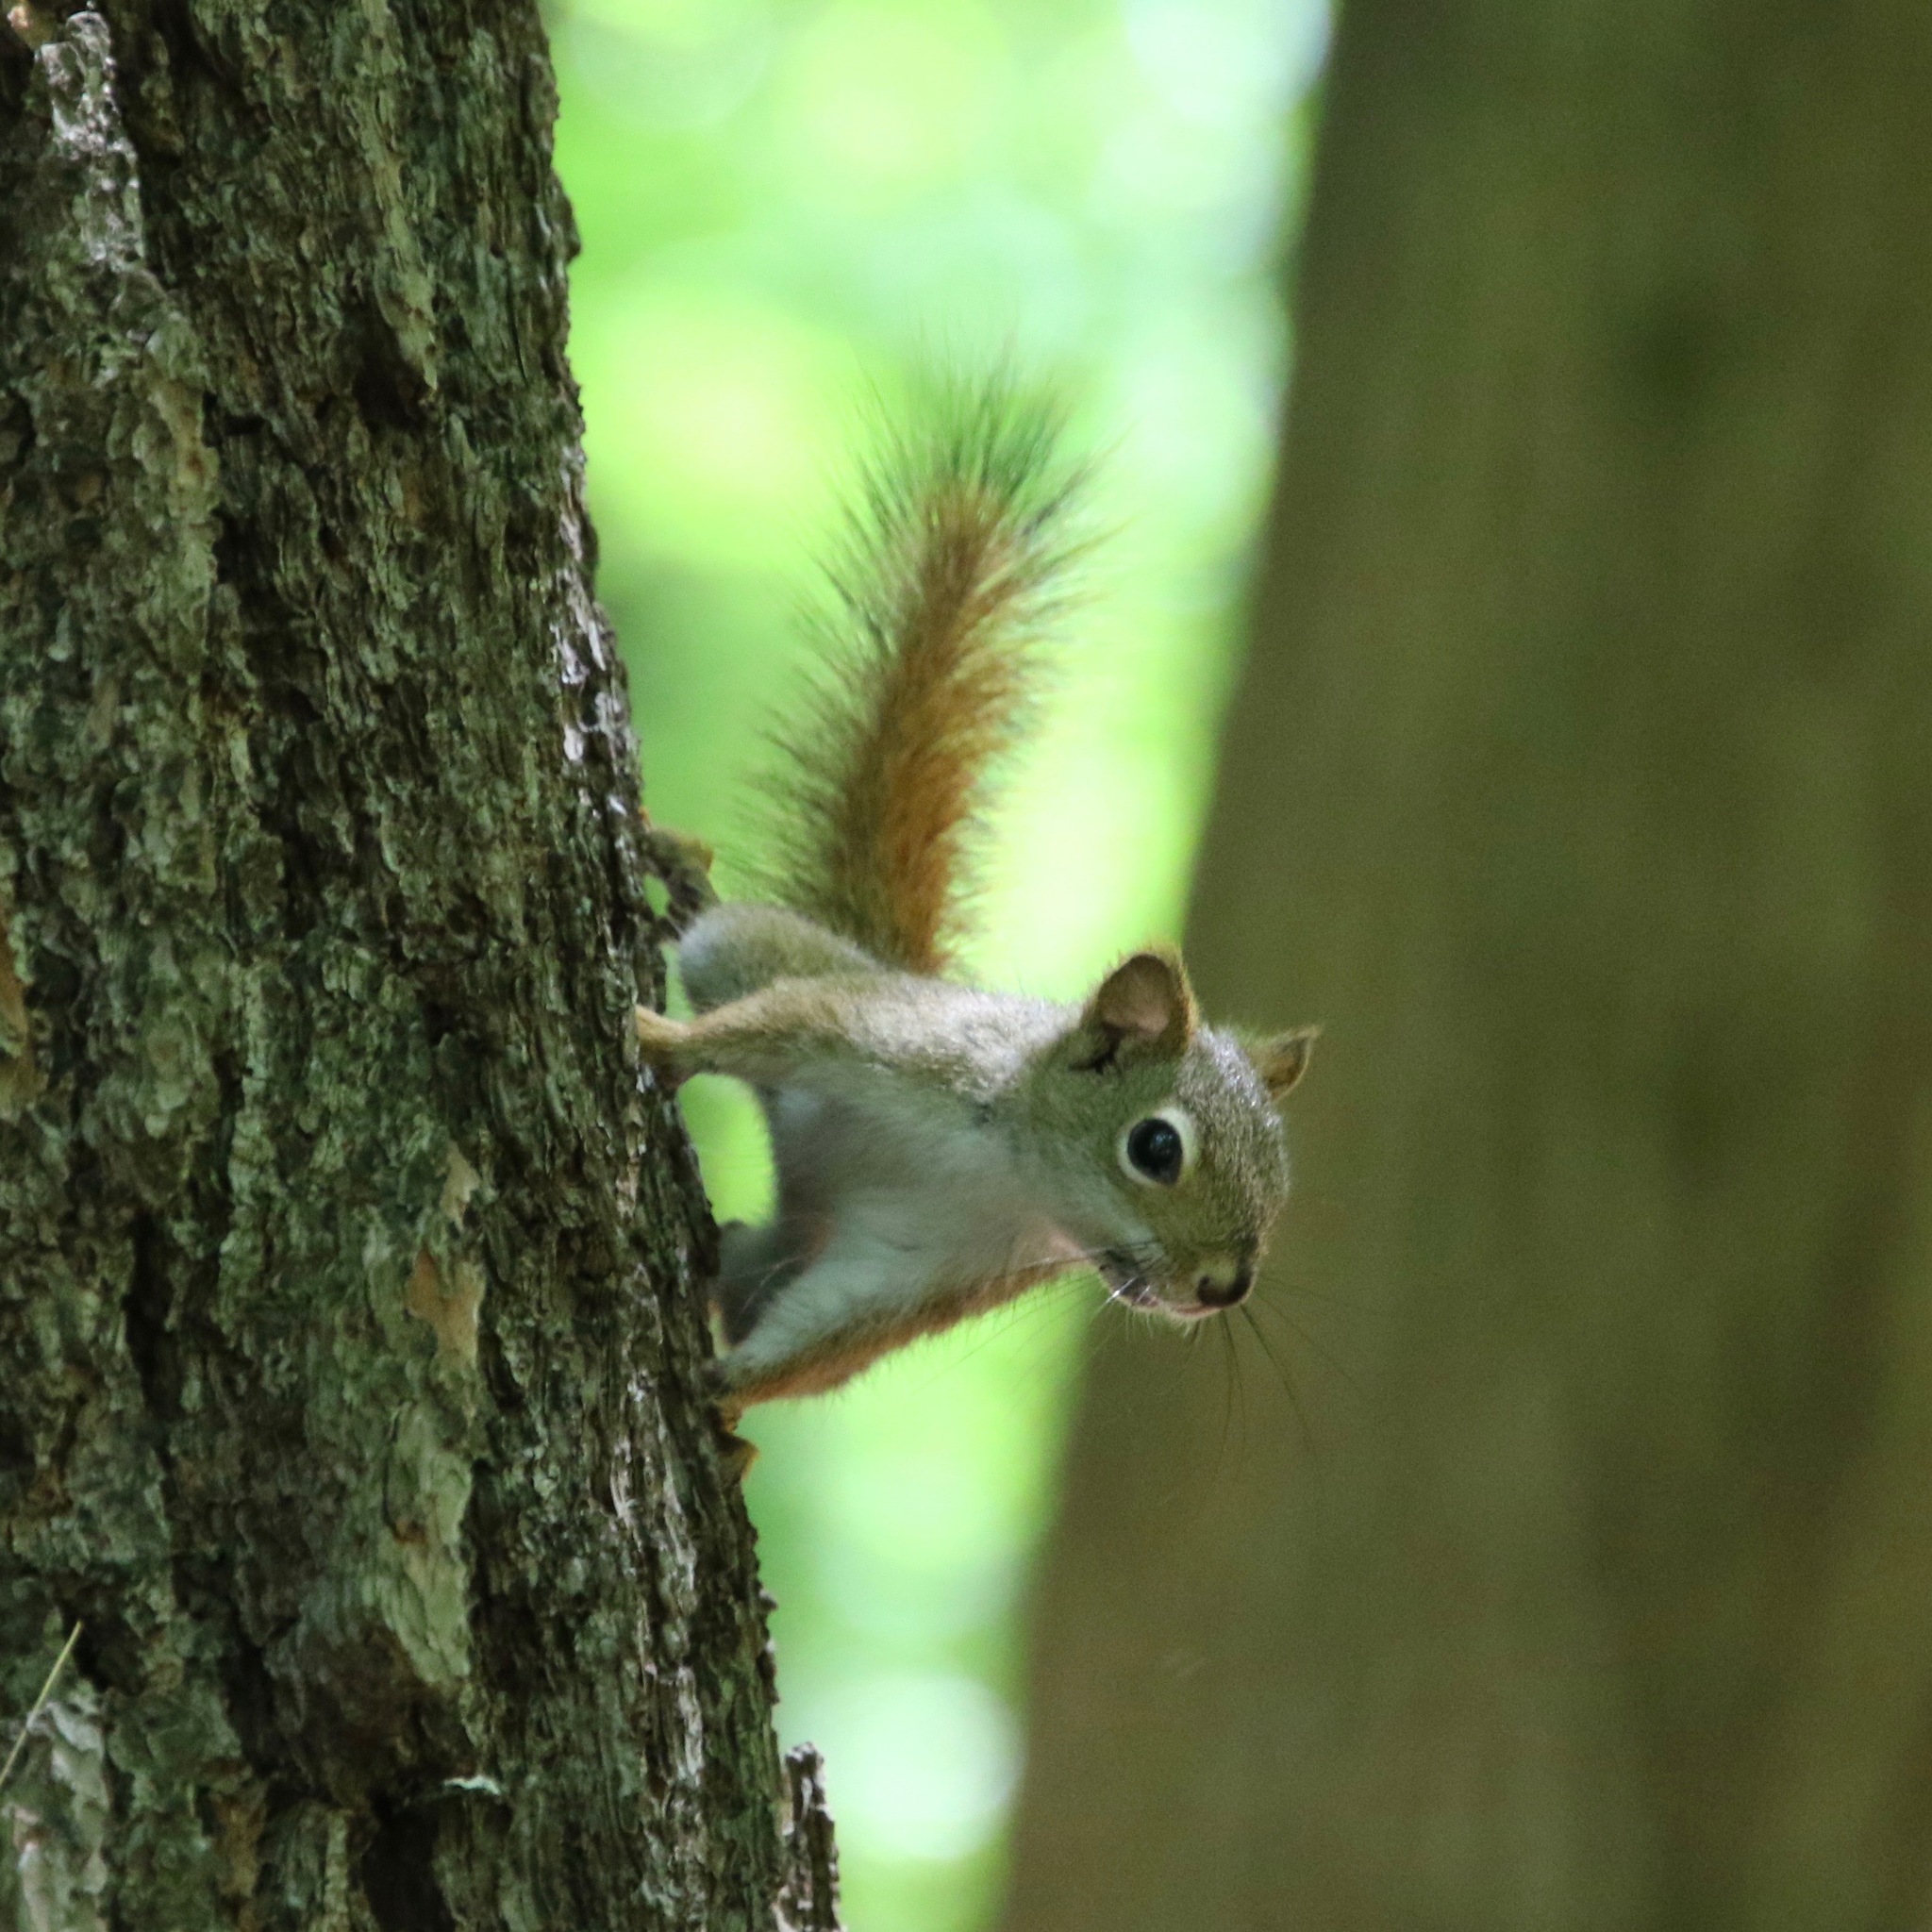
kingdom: Animalia
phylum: Chordata
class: Mammalia
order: Rodentia
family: Sciuridae
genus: Tamiasciurus
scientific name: Tamiasciurus hudsonicus
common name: Red squirrel
